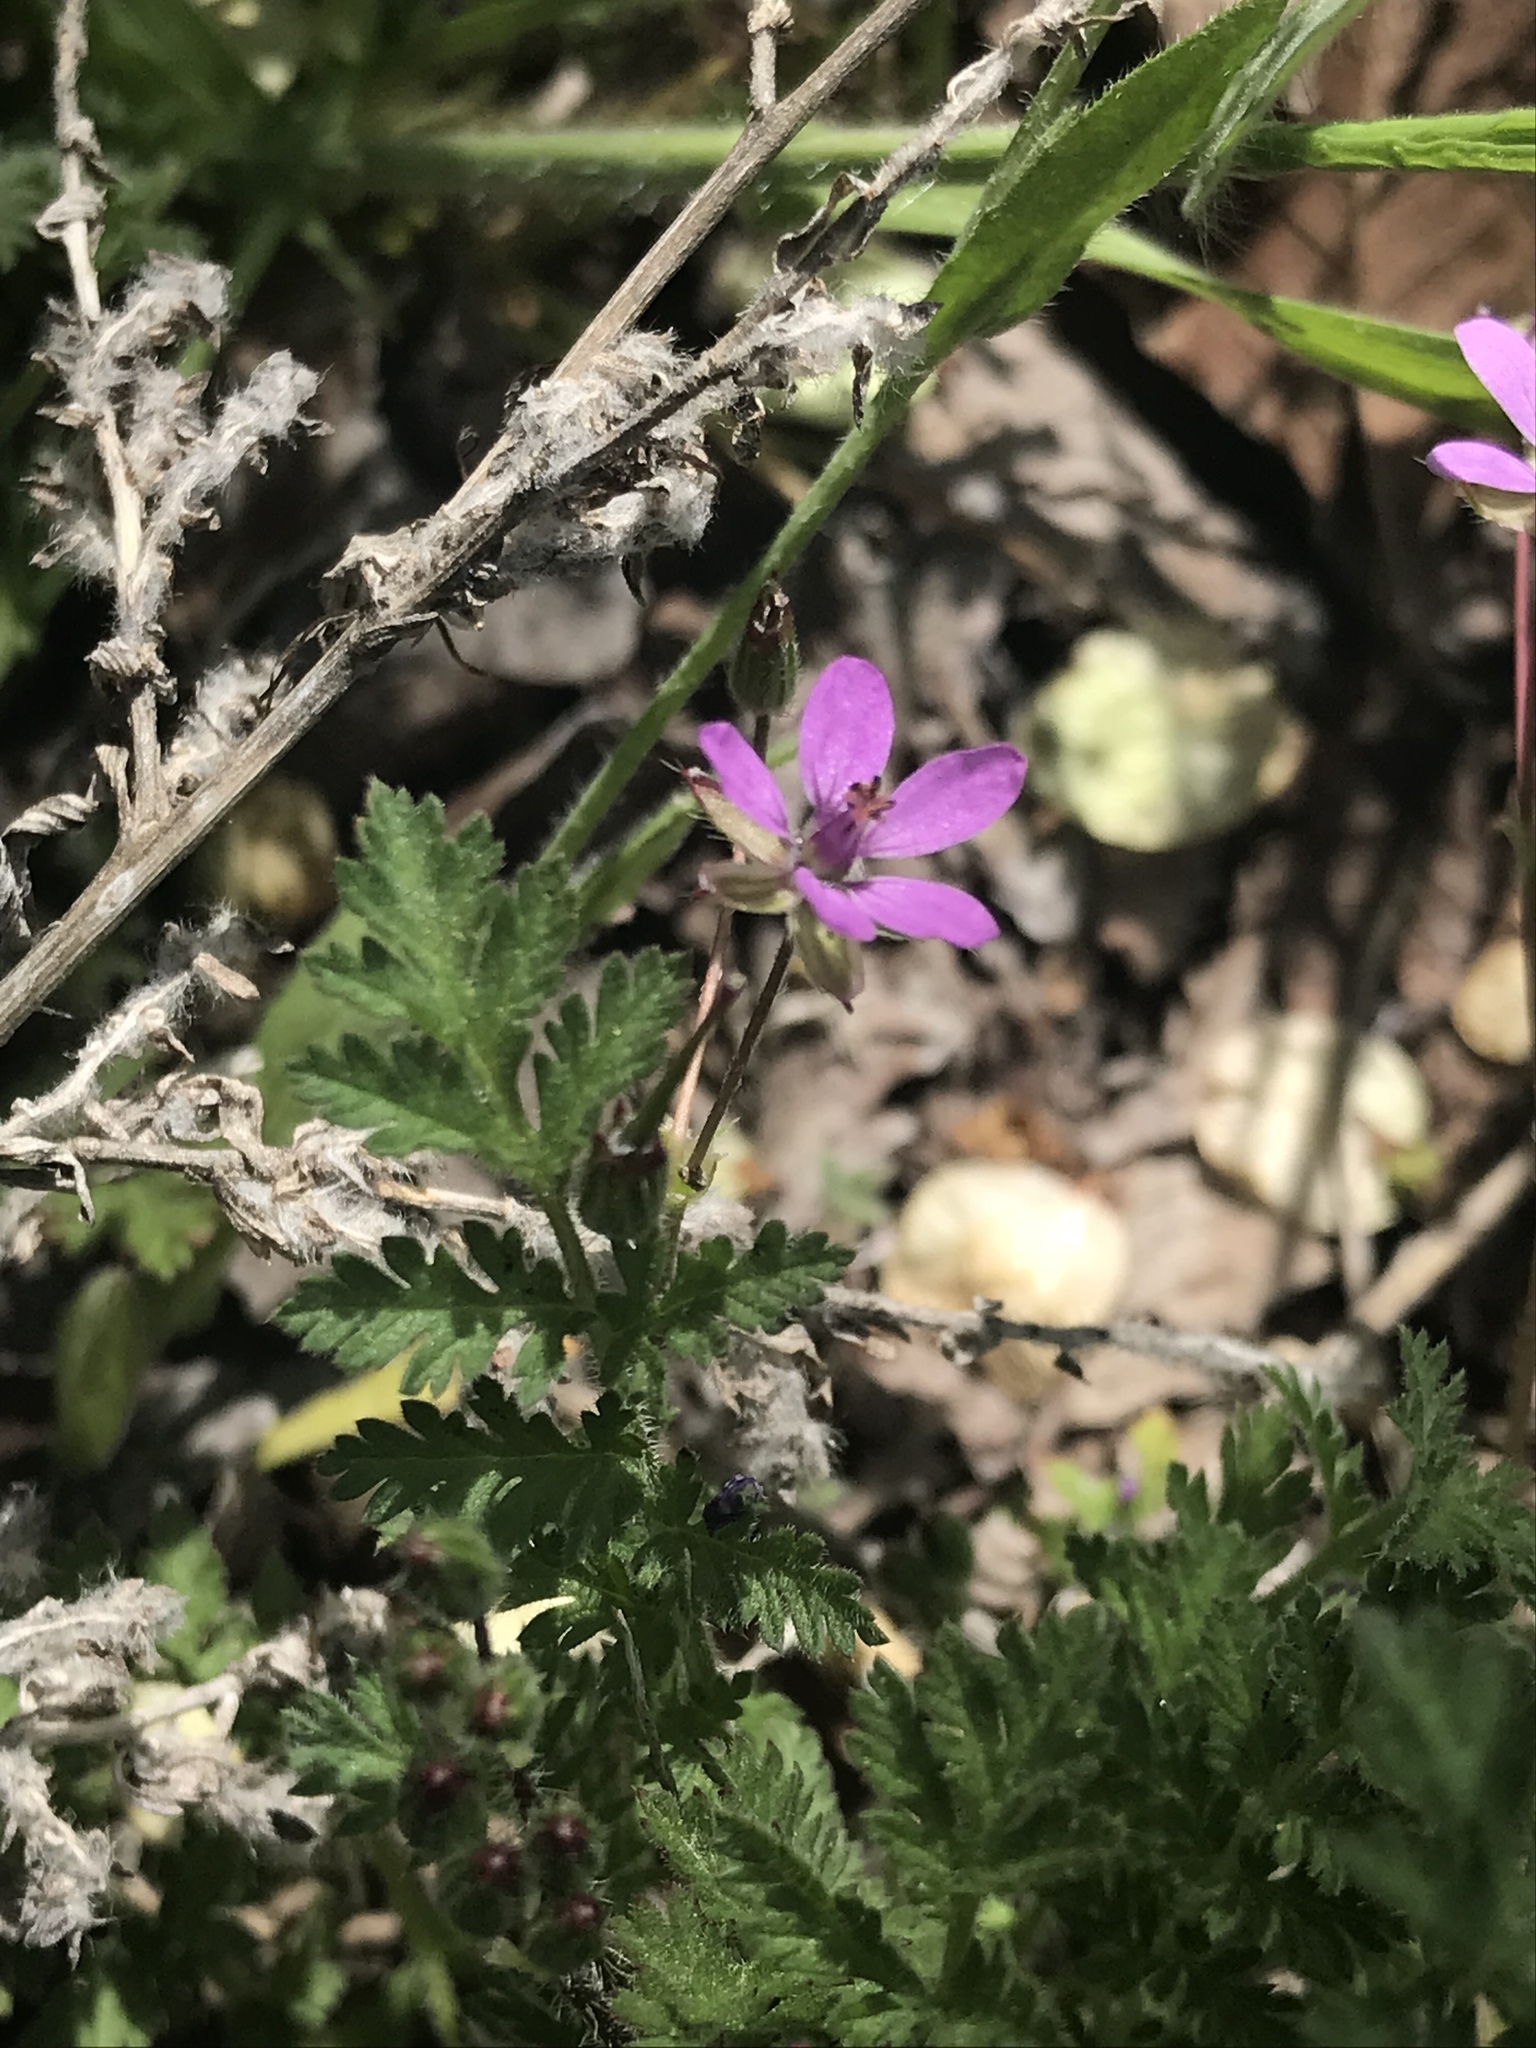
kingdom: Plantae
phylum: Tracheophyta
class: Magnoliopsida
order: Geraniales
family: Geraniaceae
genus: Erodium
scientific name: Erodium cicutarium
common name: Common stork's-bill
